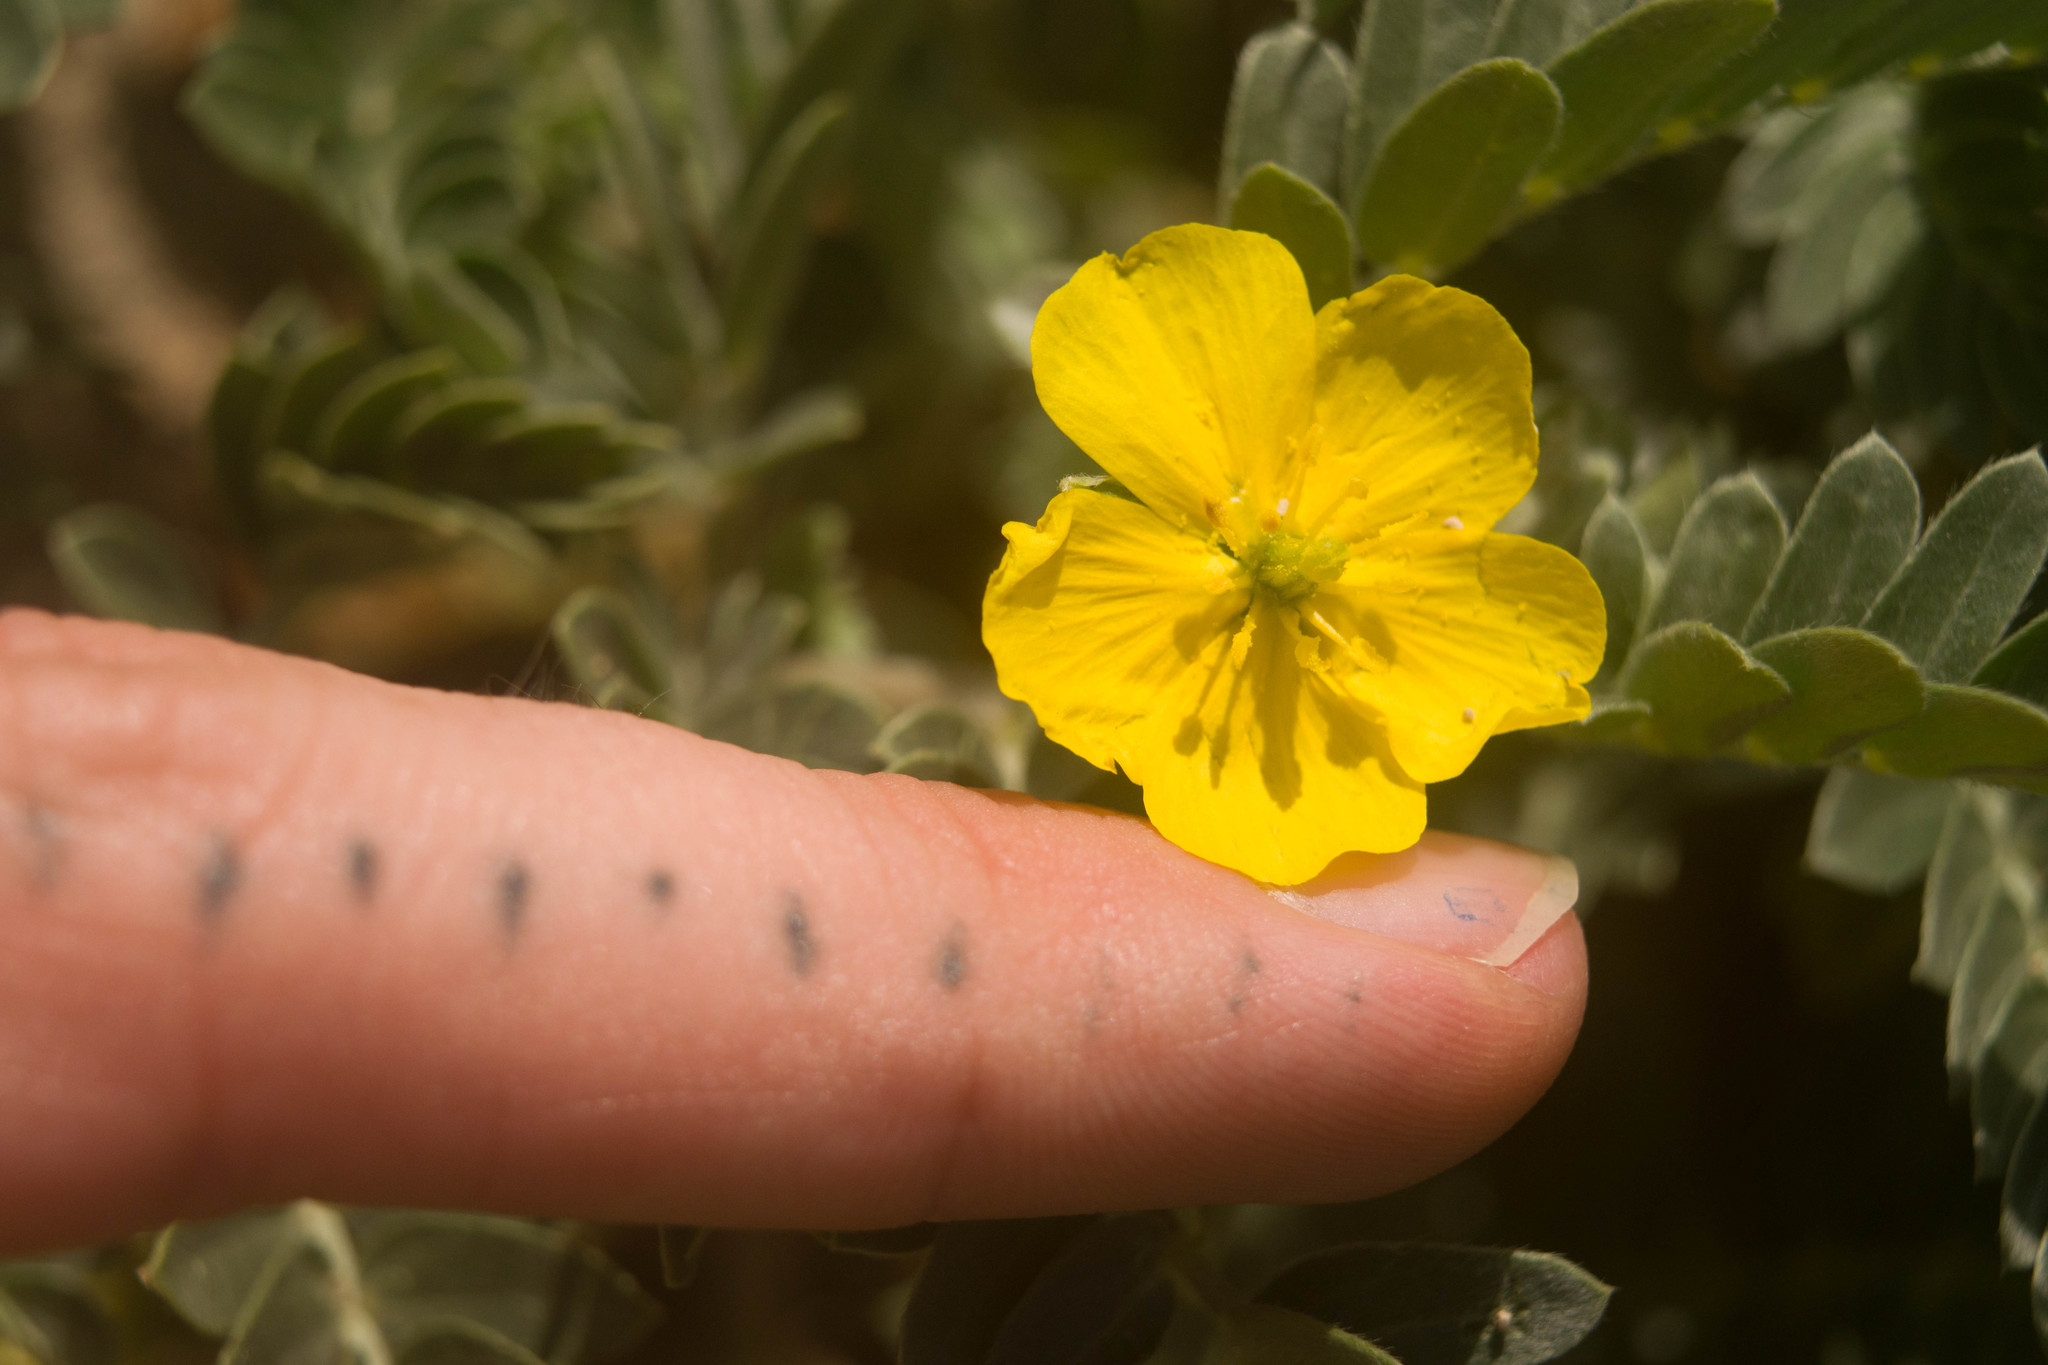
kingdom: Plantae
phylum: Tracheophyta
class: Magnoliopsida
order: Zygophyllales
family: Zygophyllaceae
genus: Tribulus
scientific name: Tribulus cistoides
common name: Jamaican feverplant
